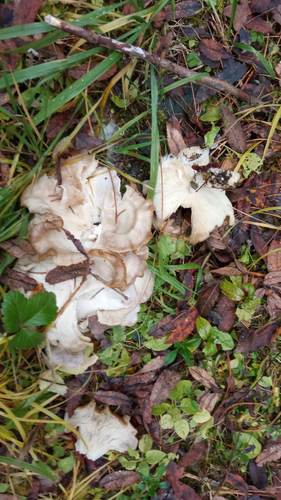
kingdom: Fungi
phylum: Basidiomycota
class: Agaricomycetes
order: Agaricales
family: Tricholomataceae
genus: Leucocybe
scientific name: Leucocybe connata
